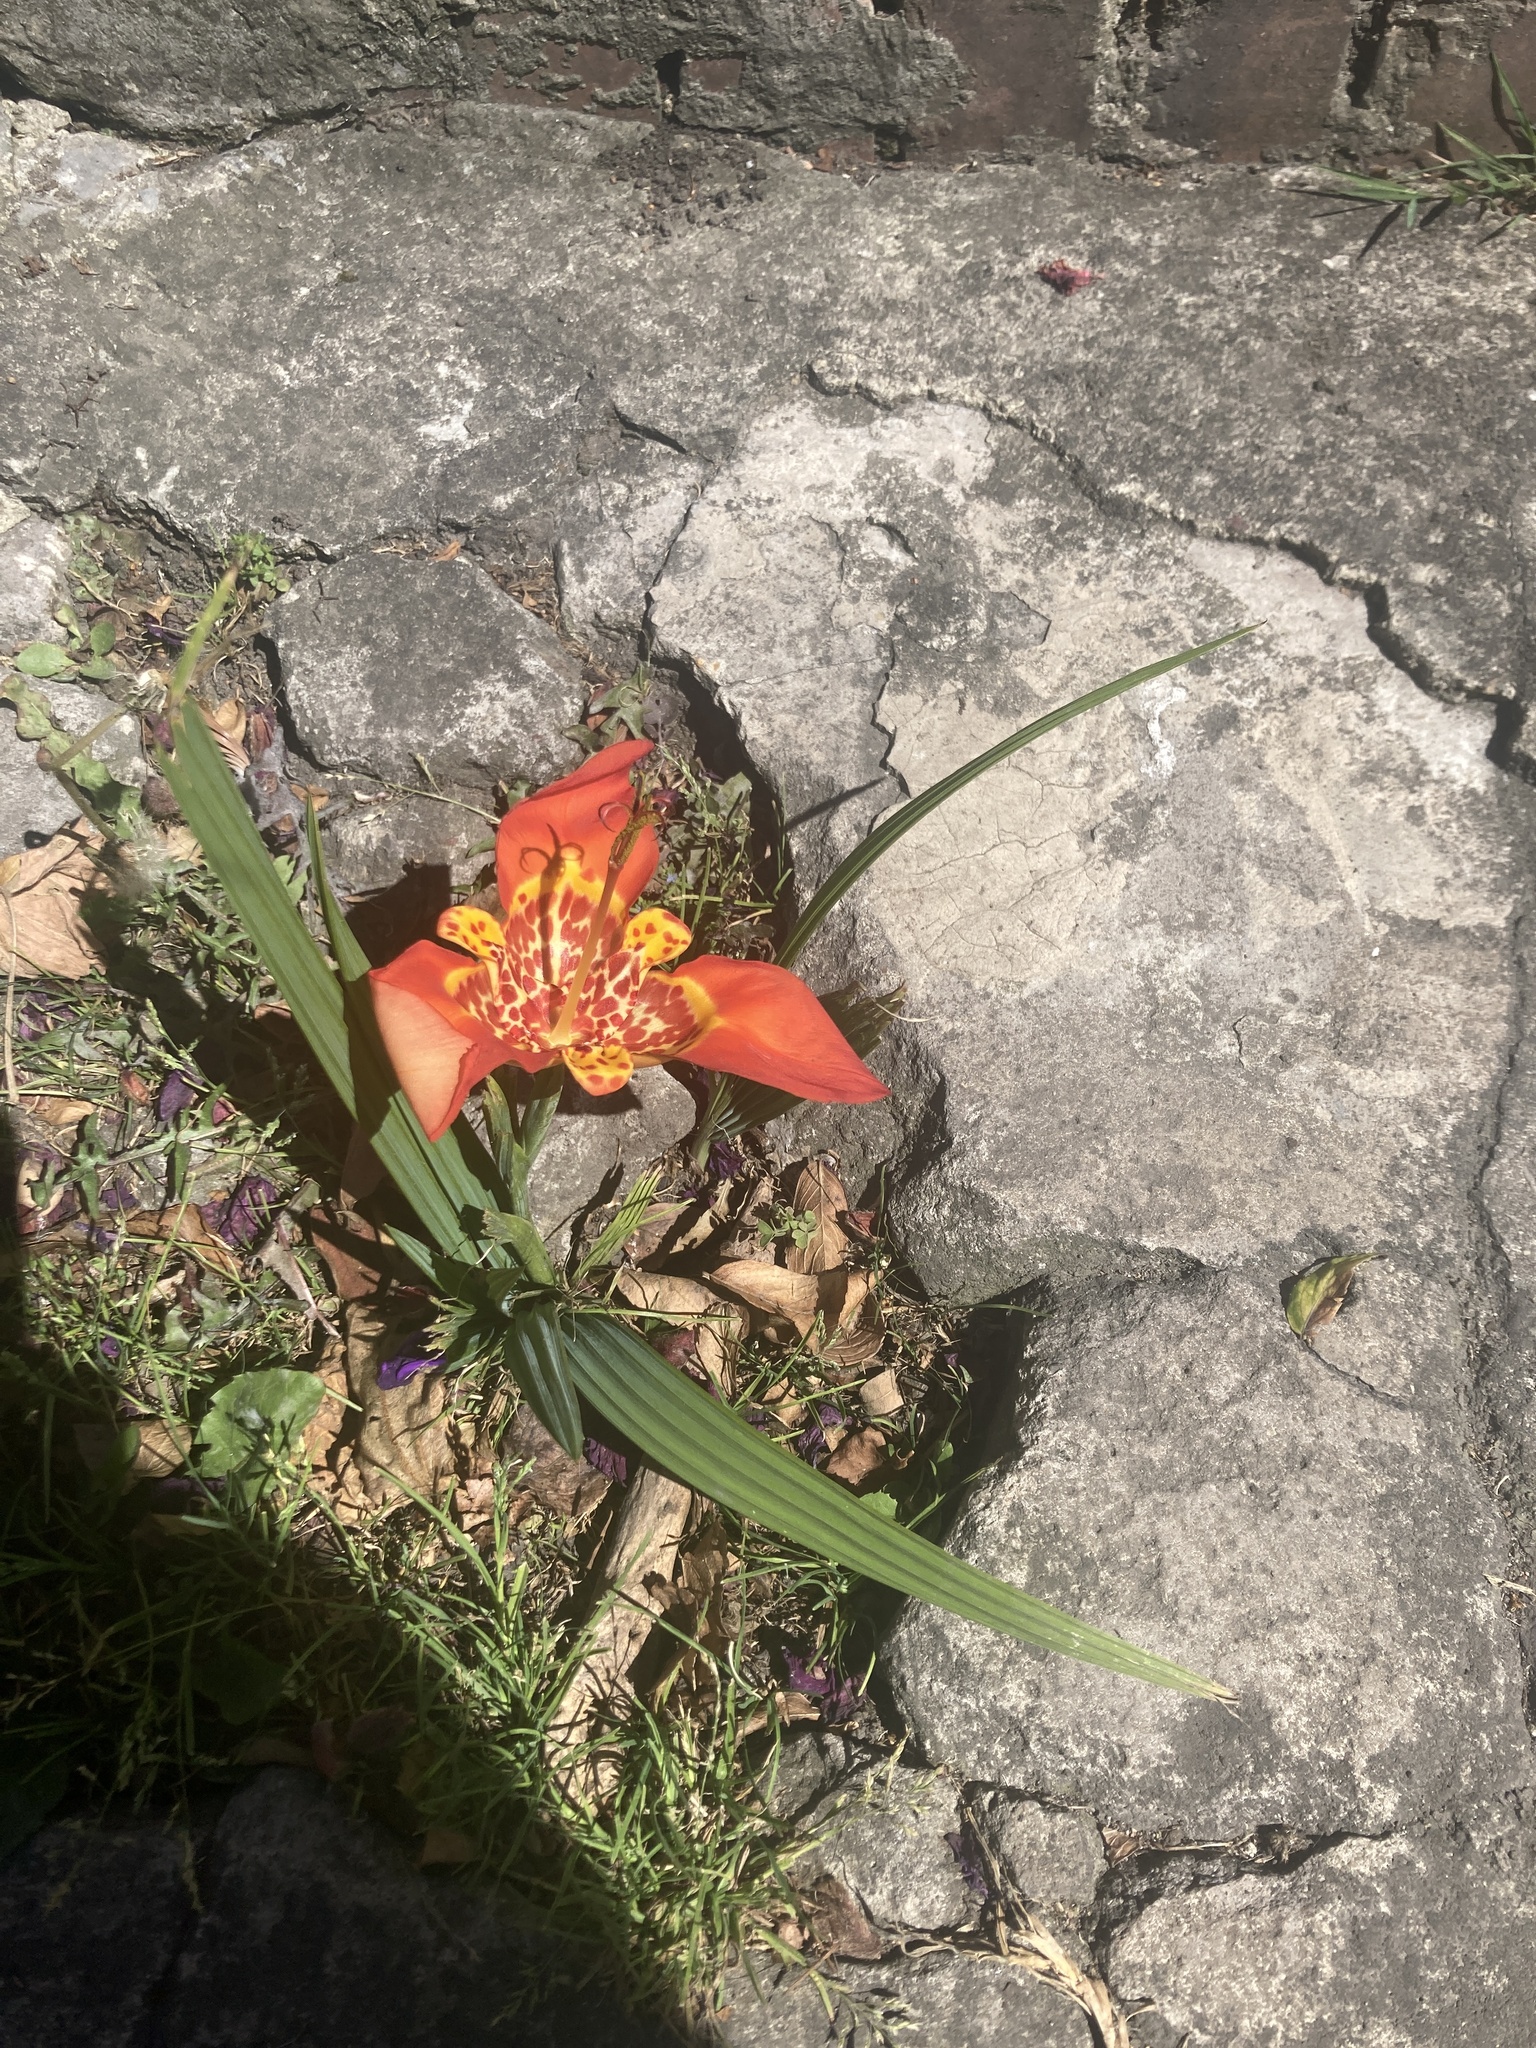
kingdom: Plantae
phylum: Tracheophyta
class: Liliopsida
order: Asparagales
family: Iridaceae
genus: Tigridia
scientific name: Tigridia pavonia
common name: Peacock-flower
